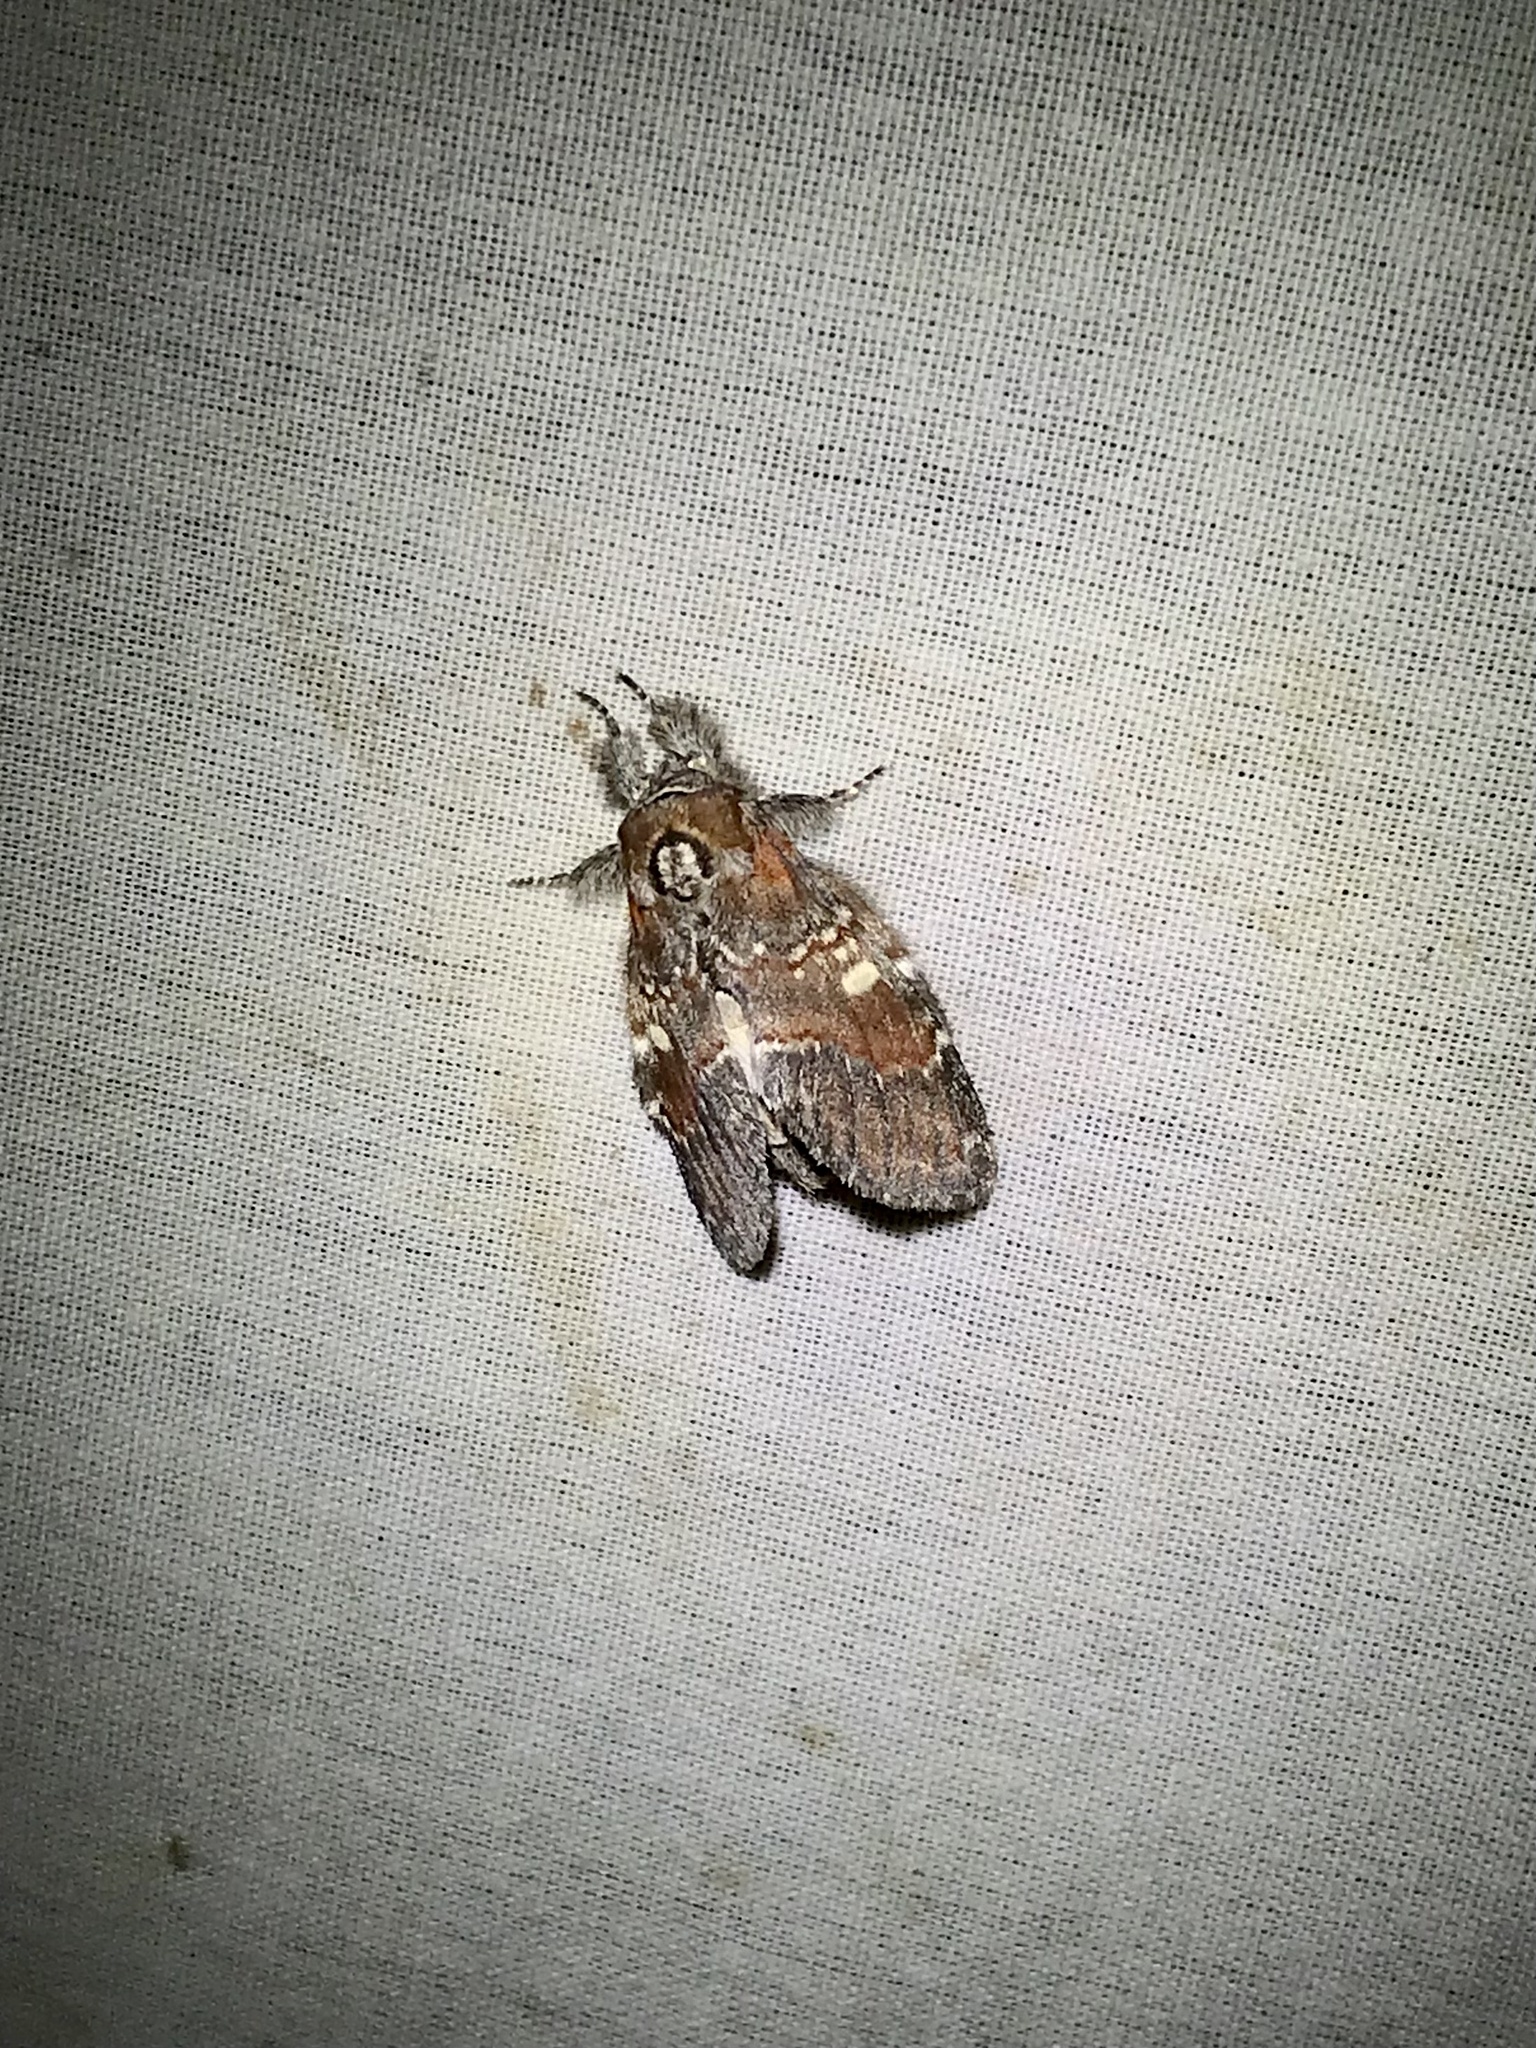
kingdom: Animalia
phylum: Arthropoda
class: Insecta
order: Lepidoptera
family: Notodontidae
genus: Peridea
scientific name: Peridea ferruginea
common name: Chocolate prominent
